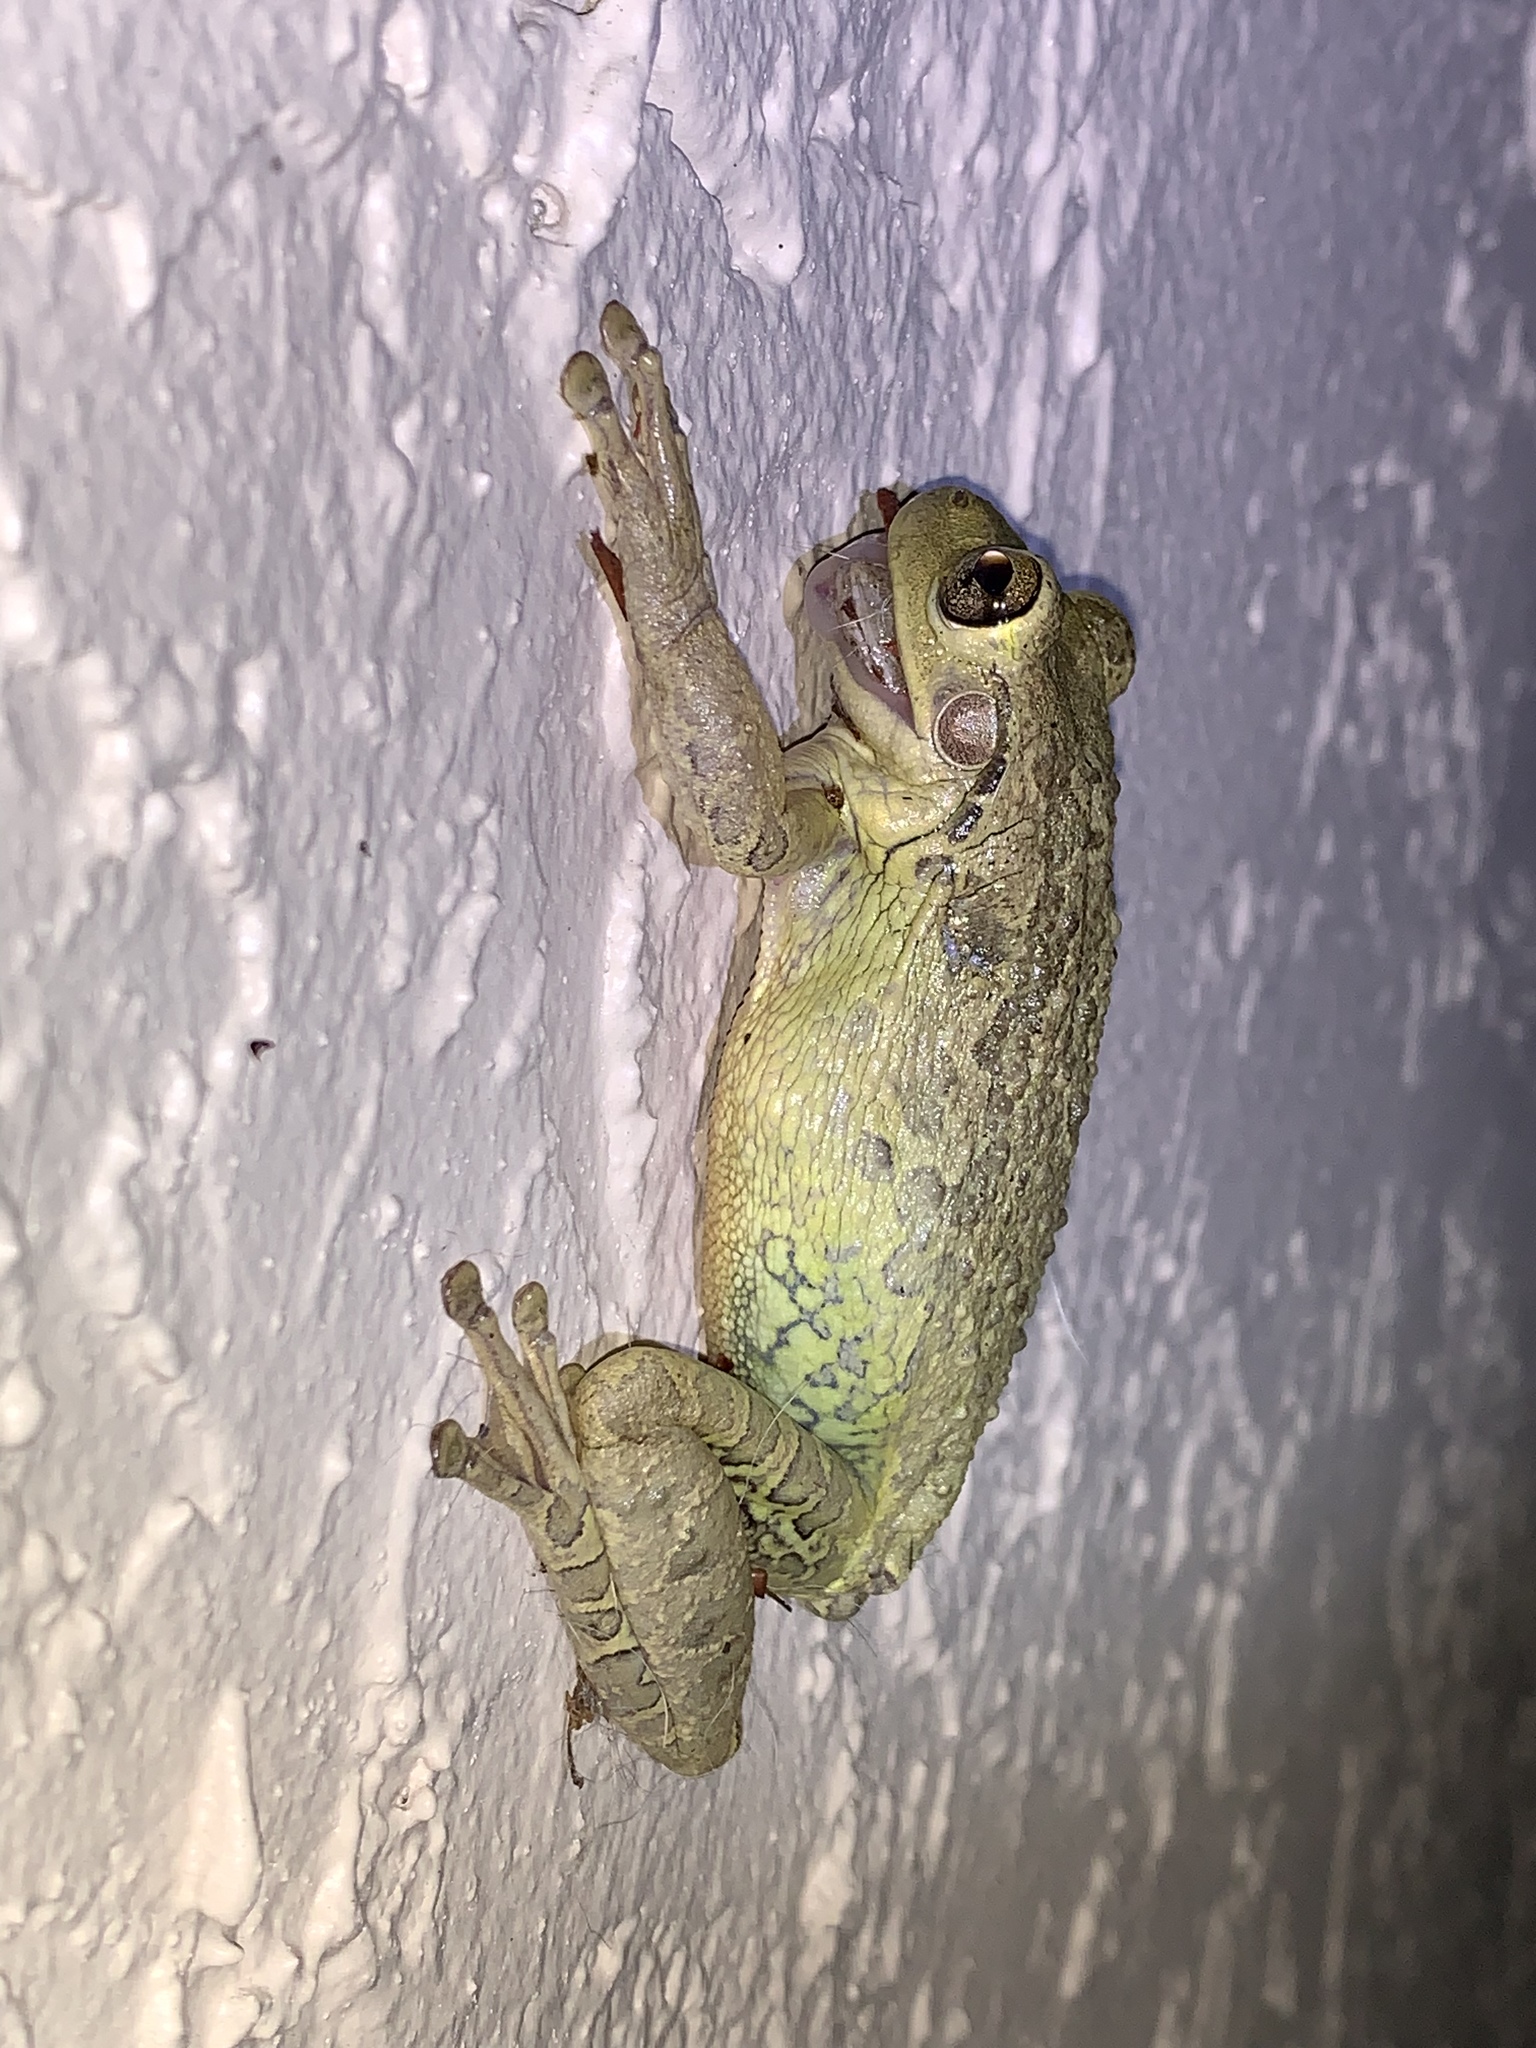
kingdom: Animalia
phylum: Chordata
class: Amphibia
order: Anura
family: Hylidae
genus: Osteopilus
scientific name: Osteopilus septentrionalis
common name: Cuban treefrog
